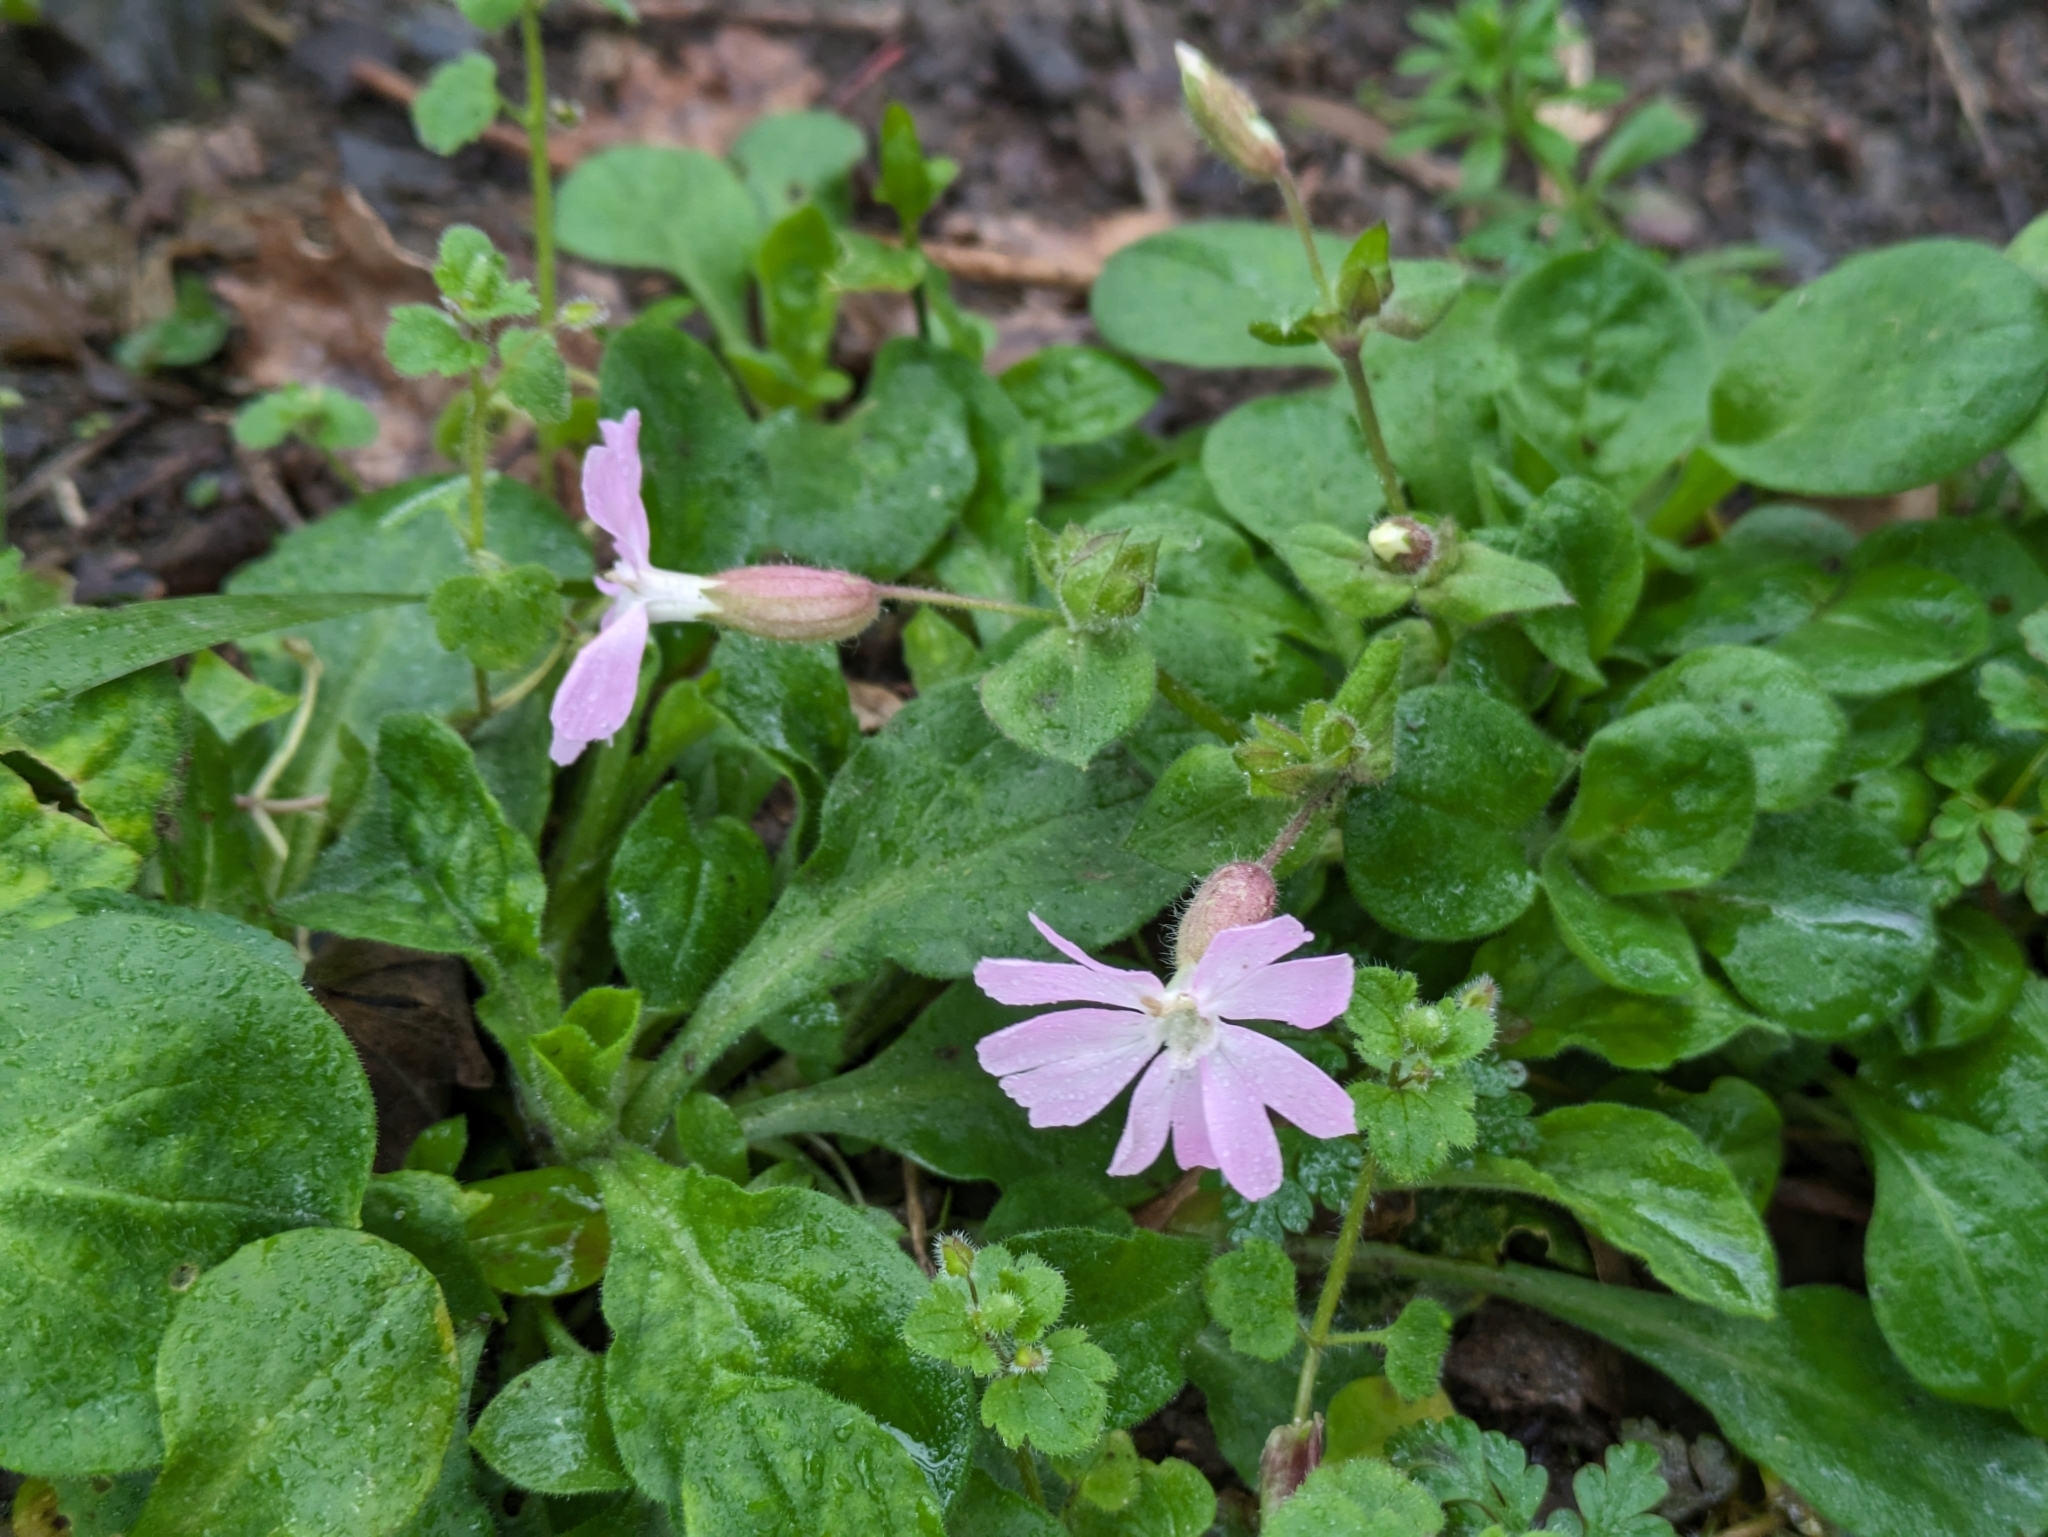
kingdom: Plantae
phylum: Tracheophyta
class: Magnoliopsida
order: Caryophyllales
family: Caryophyllaceae
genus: Silene
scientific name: Silene dioica
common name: Red campion
